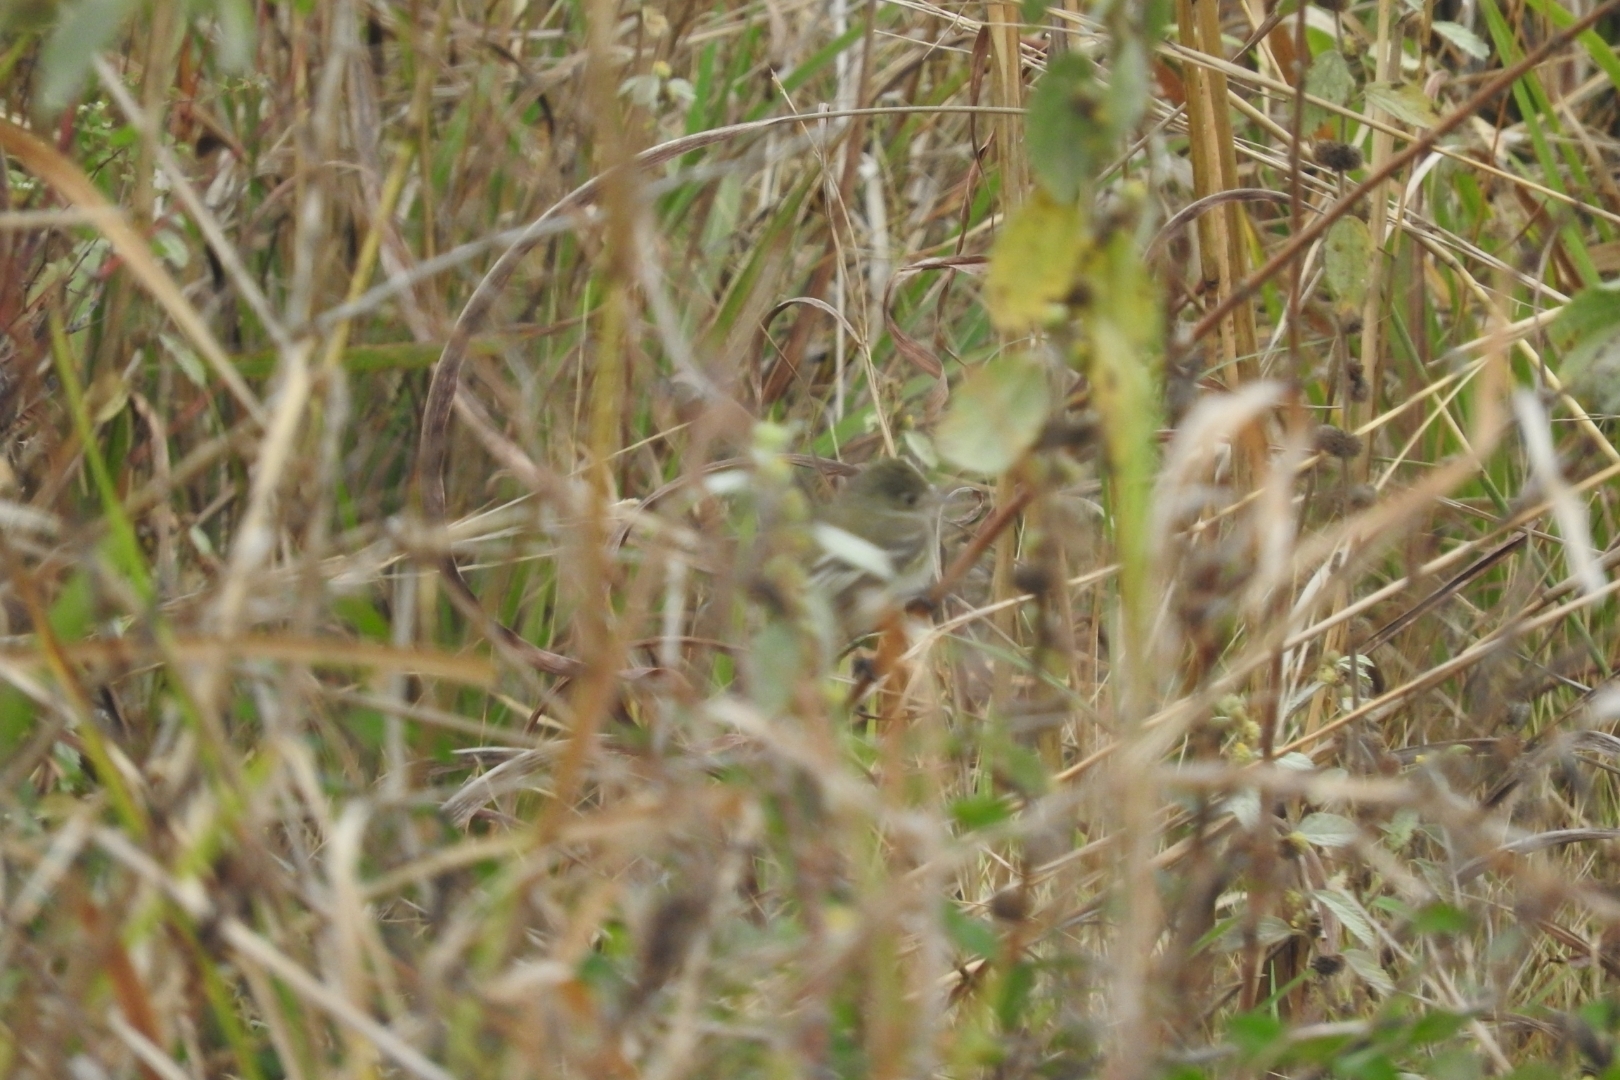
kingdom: Animalia
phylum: Chordata
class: Aves
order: Passeriformes
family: Tyrannidae
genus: Empidonax
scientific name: Empidonax minimus
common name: Least flycatcher
